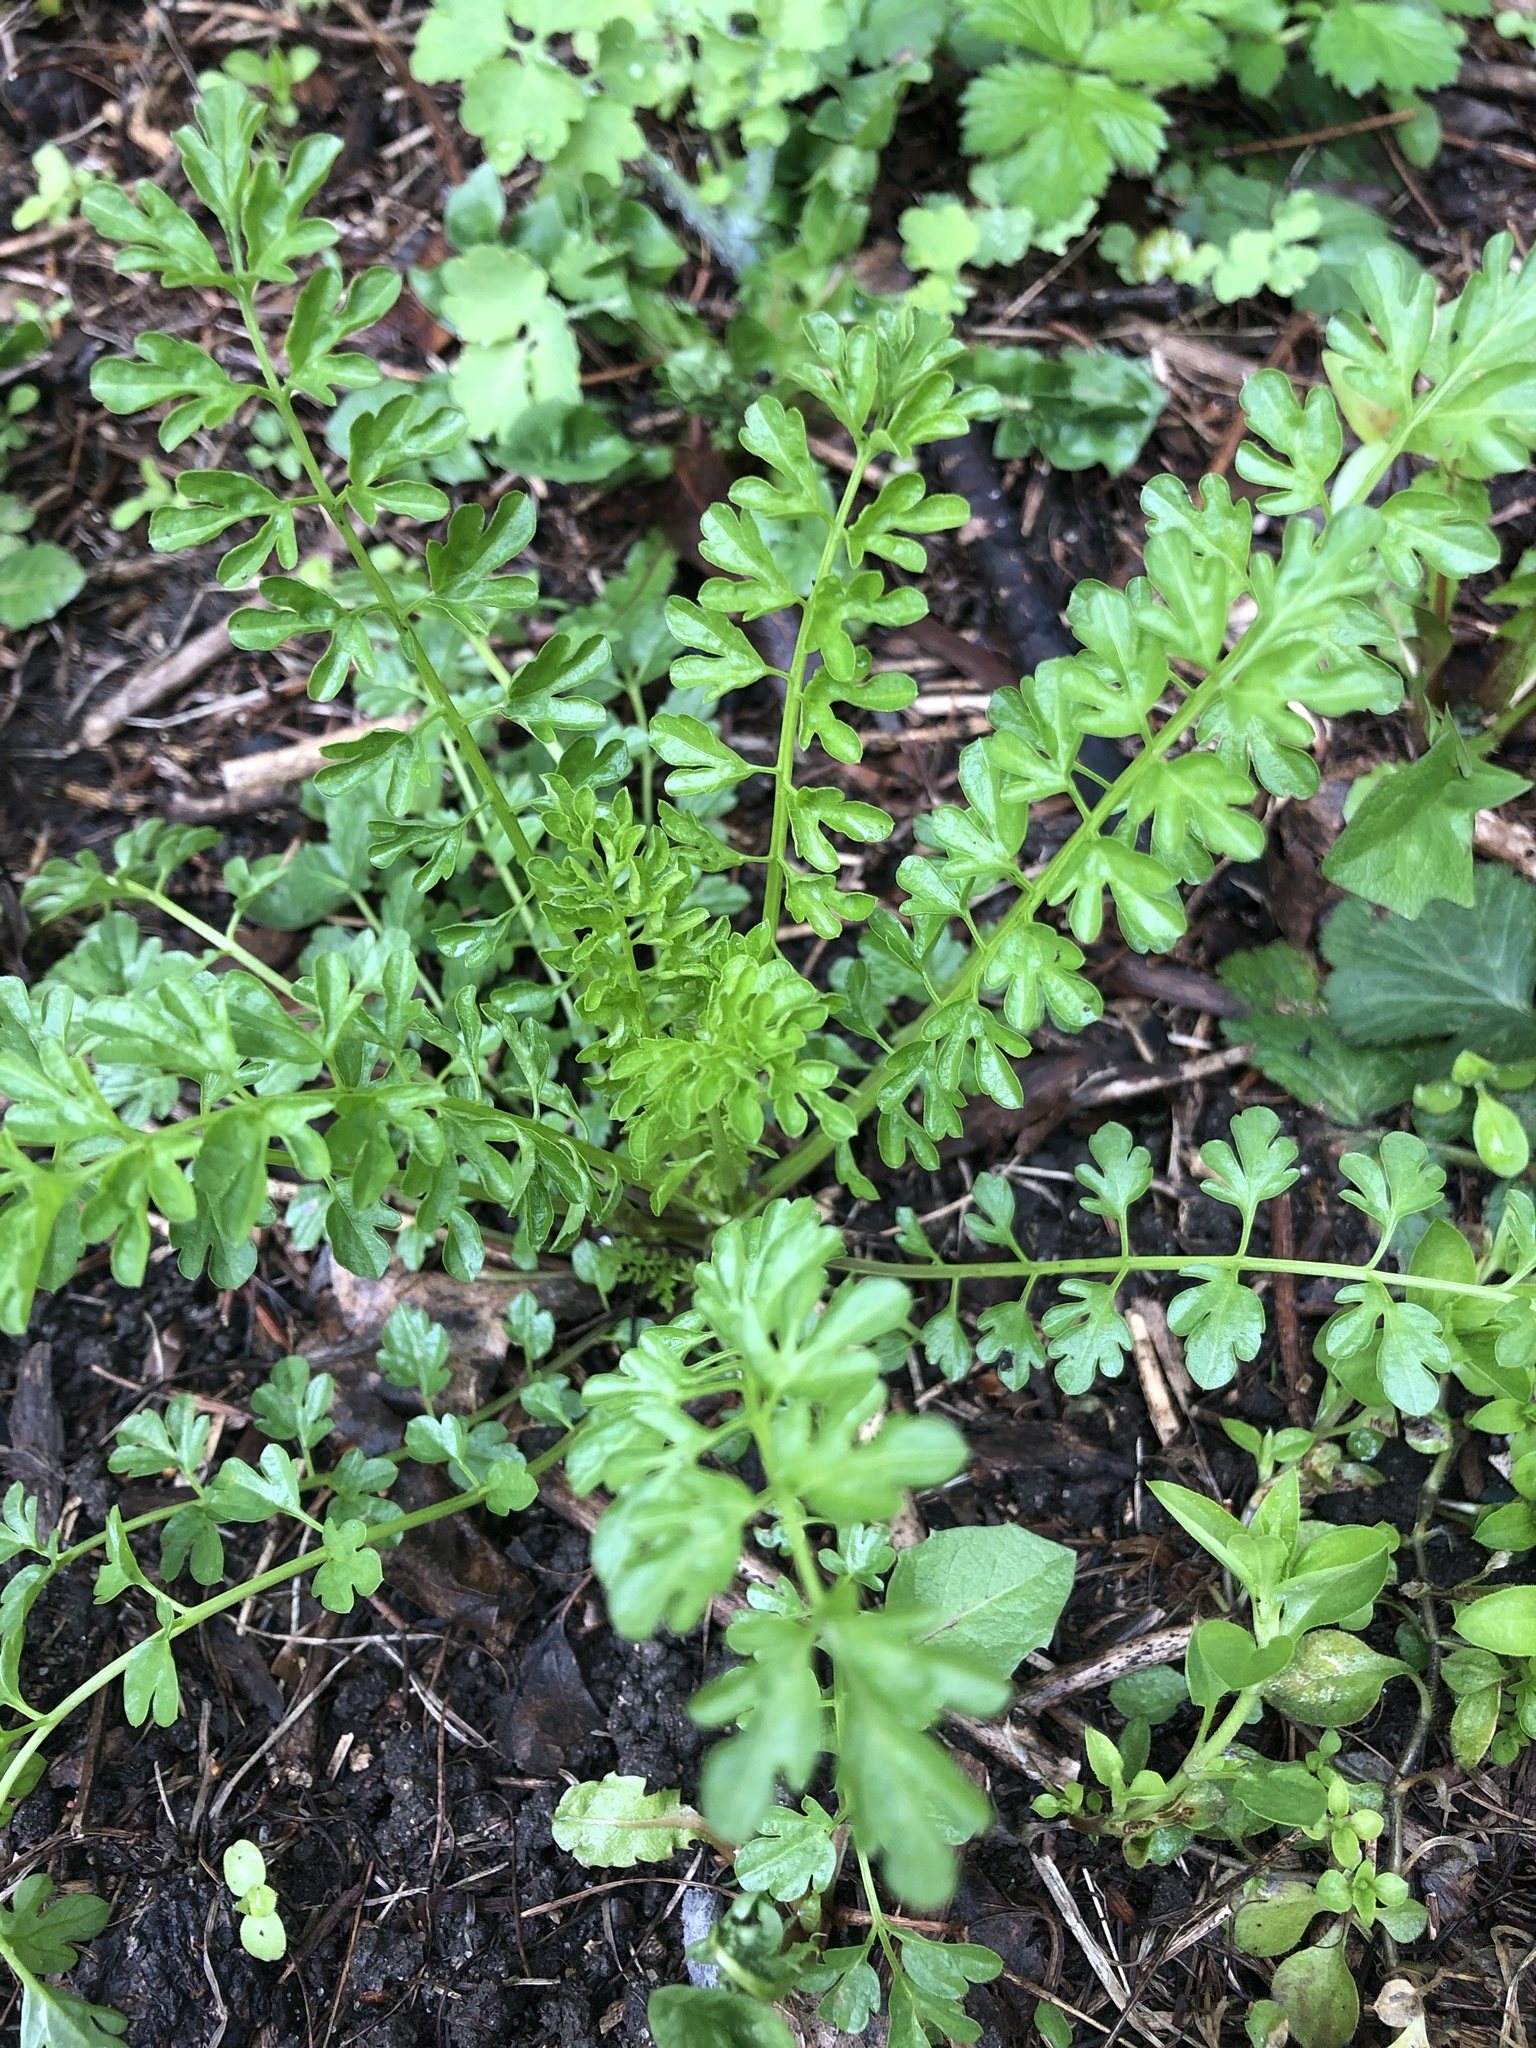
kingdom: Plantae
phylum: Tracheophyta
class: Magnoliopsida
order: Brassicales
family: Brassicaceae
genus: Cardamine
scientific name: Cardamine impatiens
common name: Narrow-leaved bitter-cress
